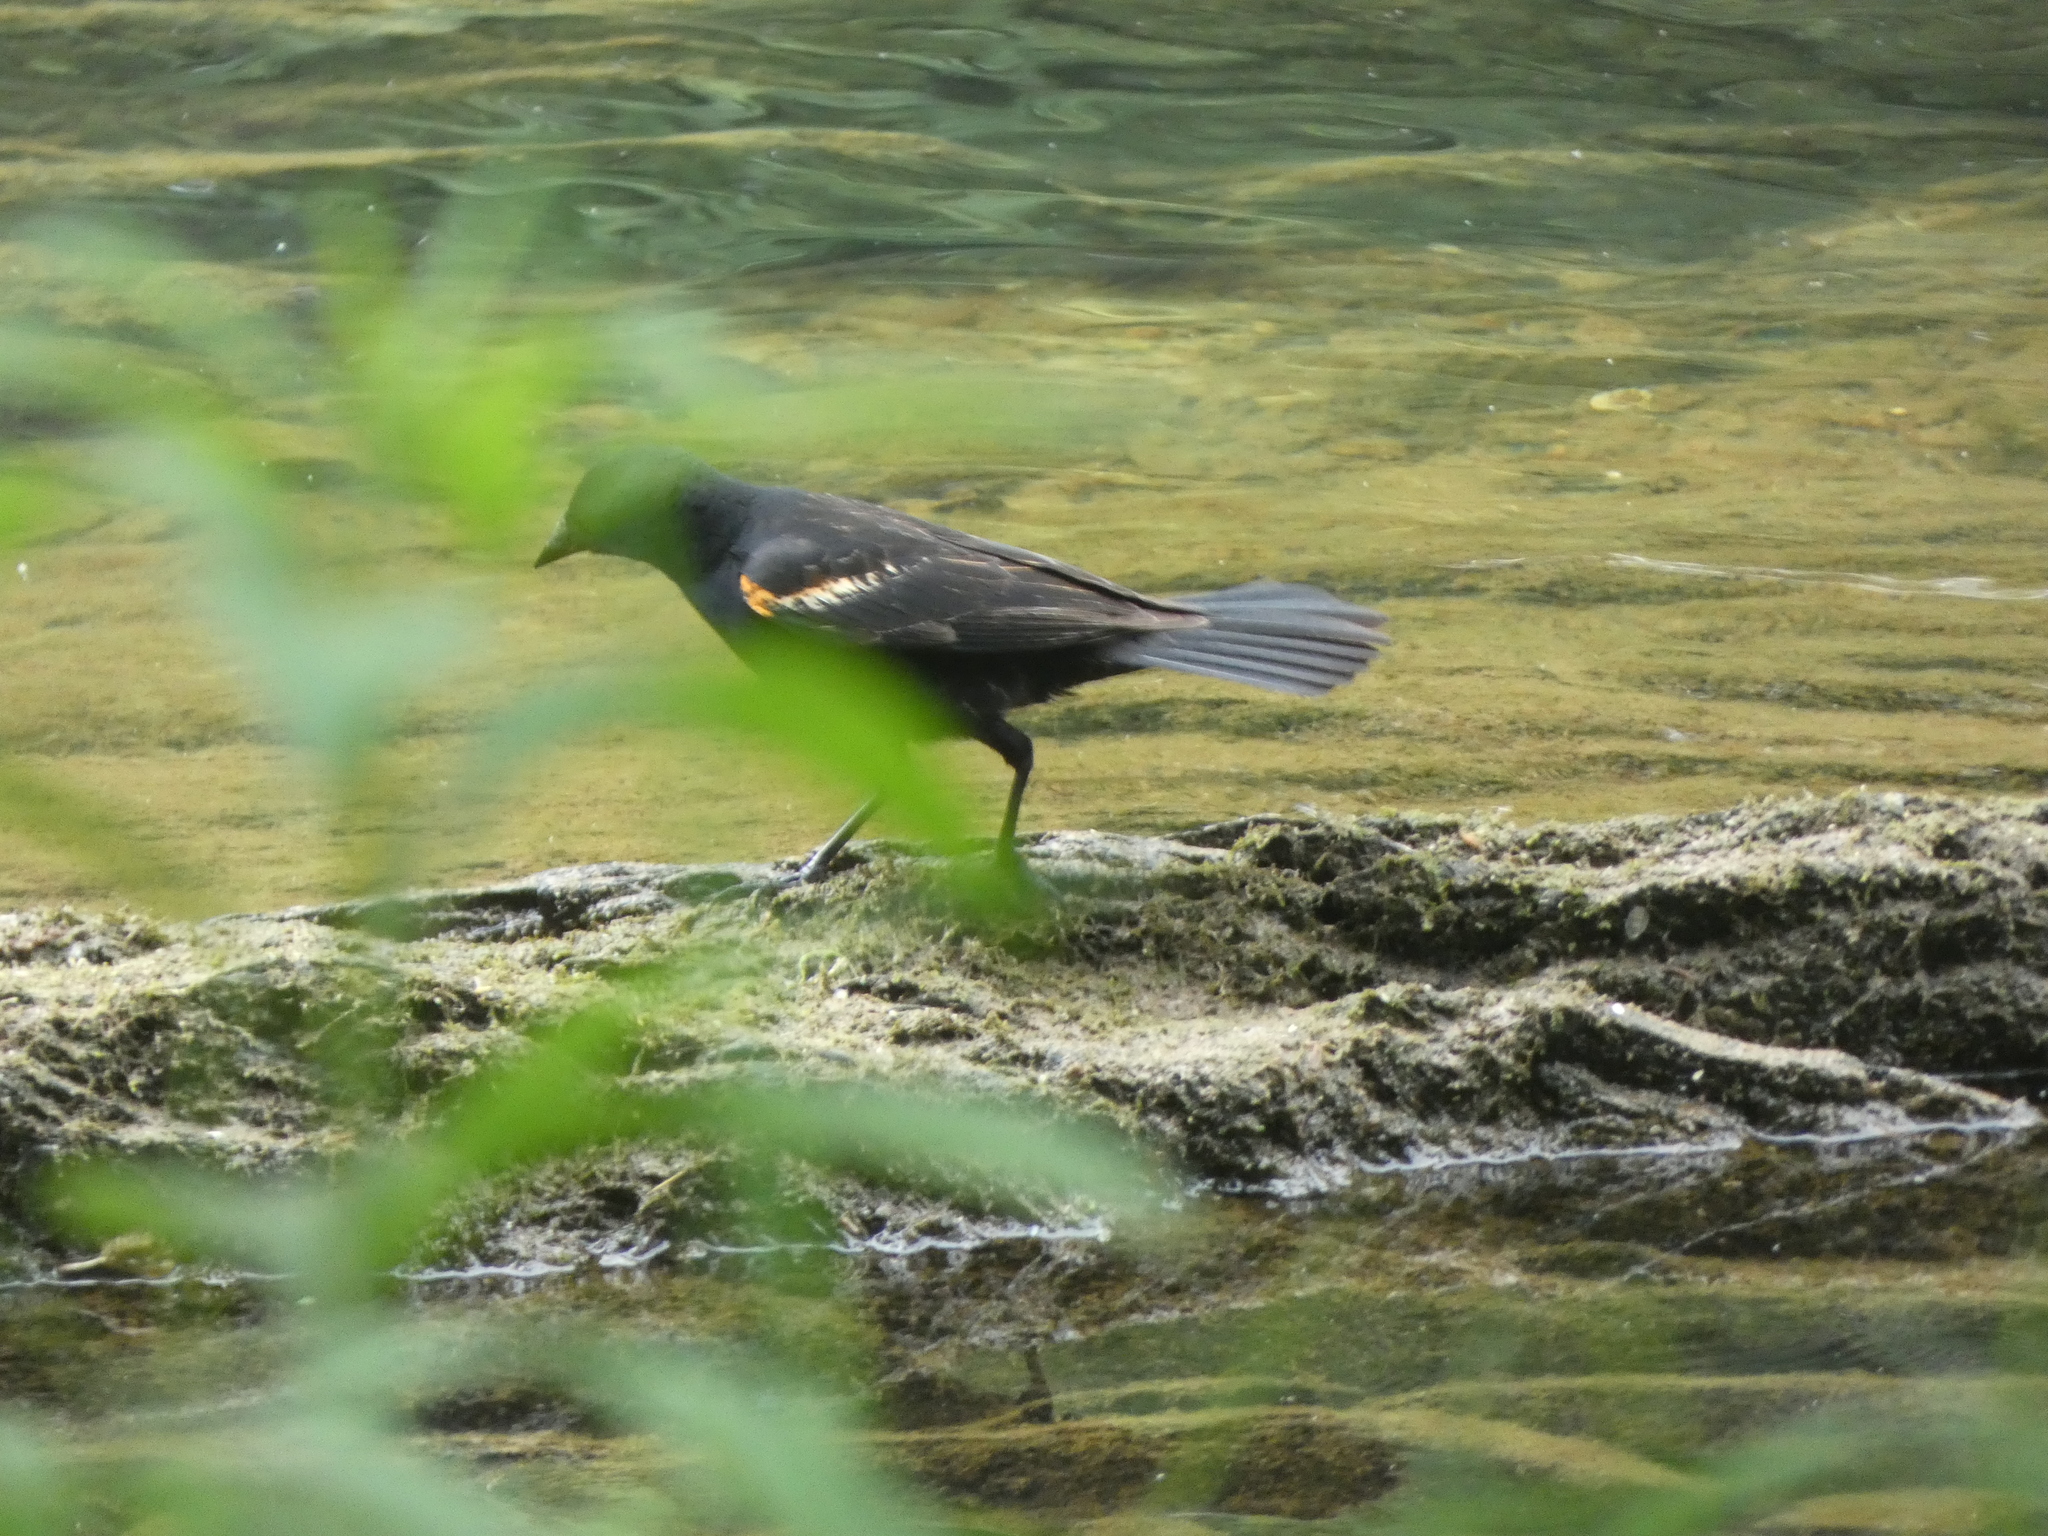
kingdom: Animalia
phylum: Chordata
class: Aves
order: Passeriformes
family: Icteridae
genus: Agelaius
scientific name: Agelaius phoeniceus
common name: Red-winged blackbird
